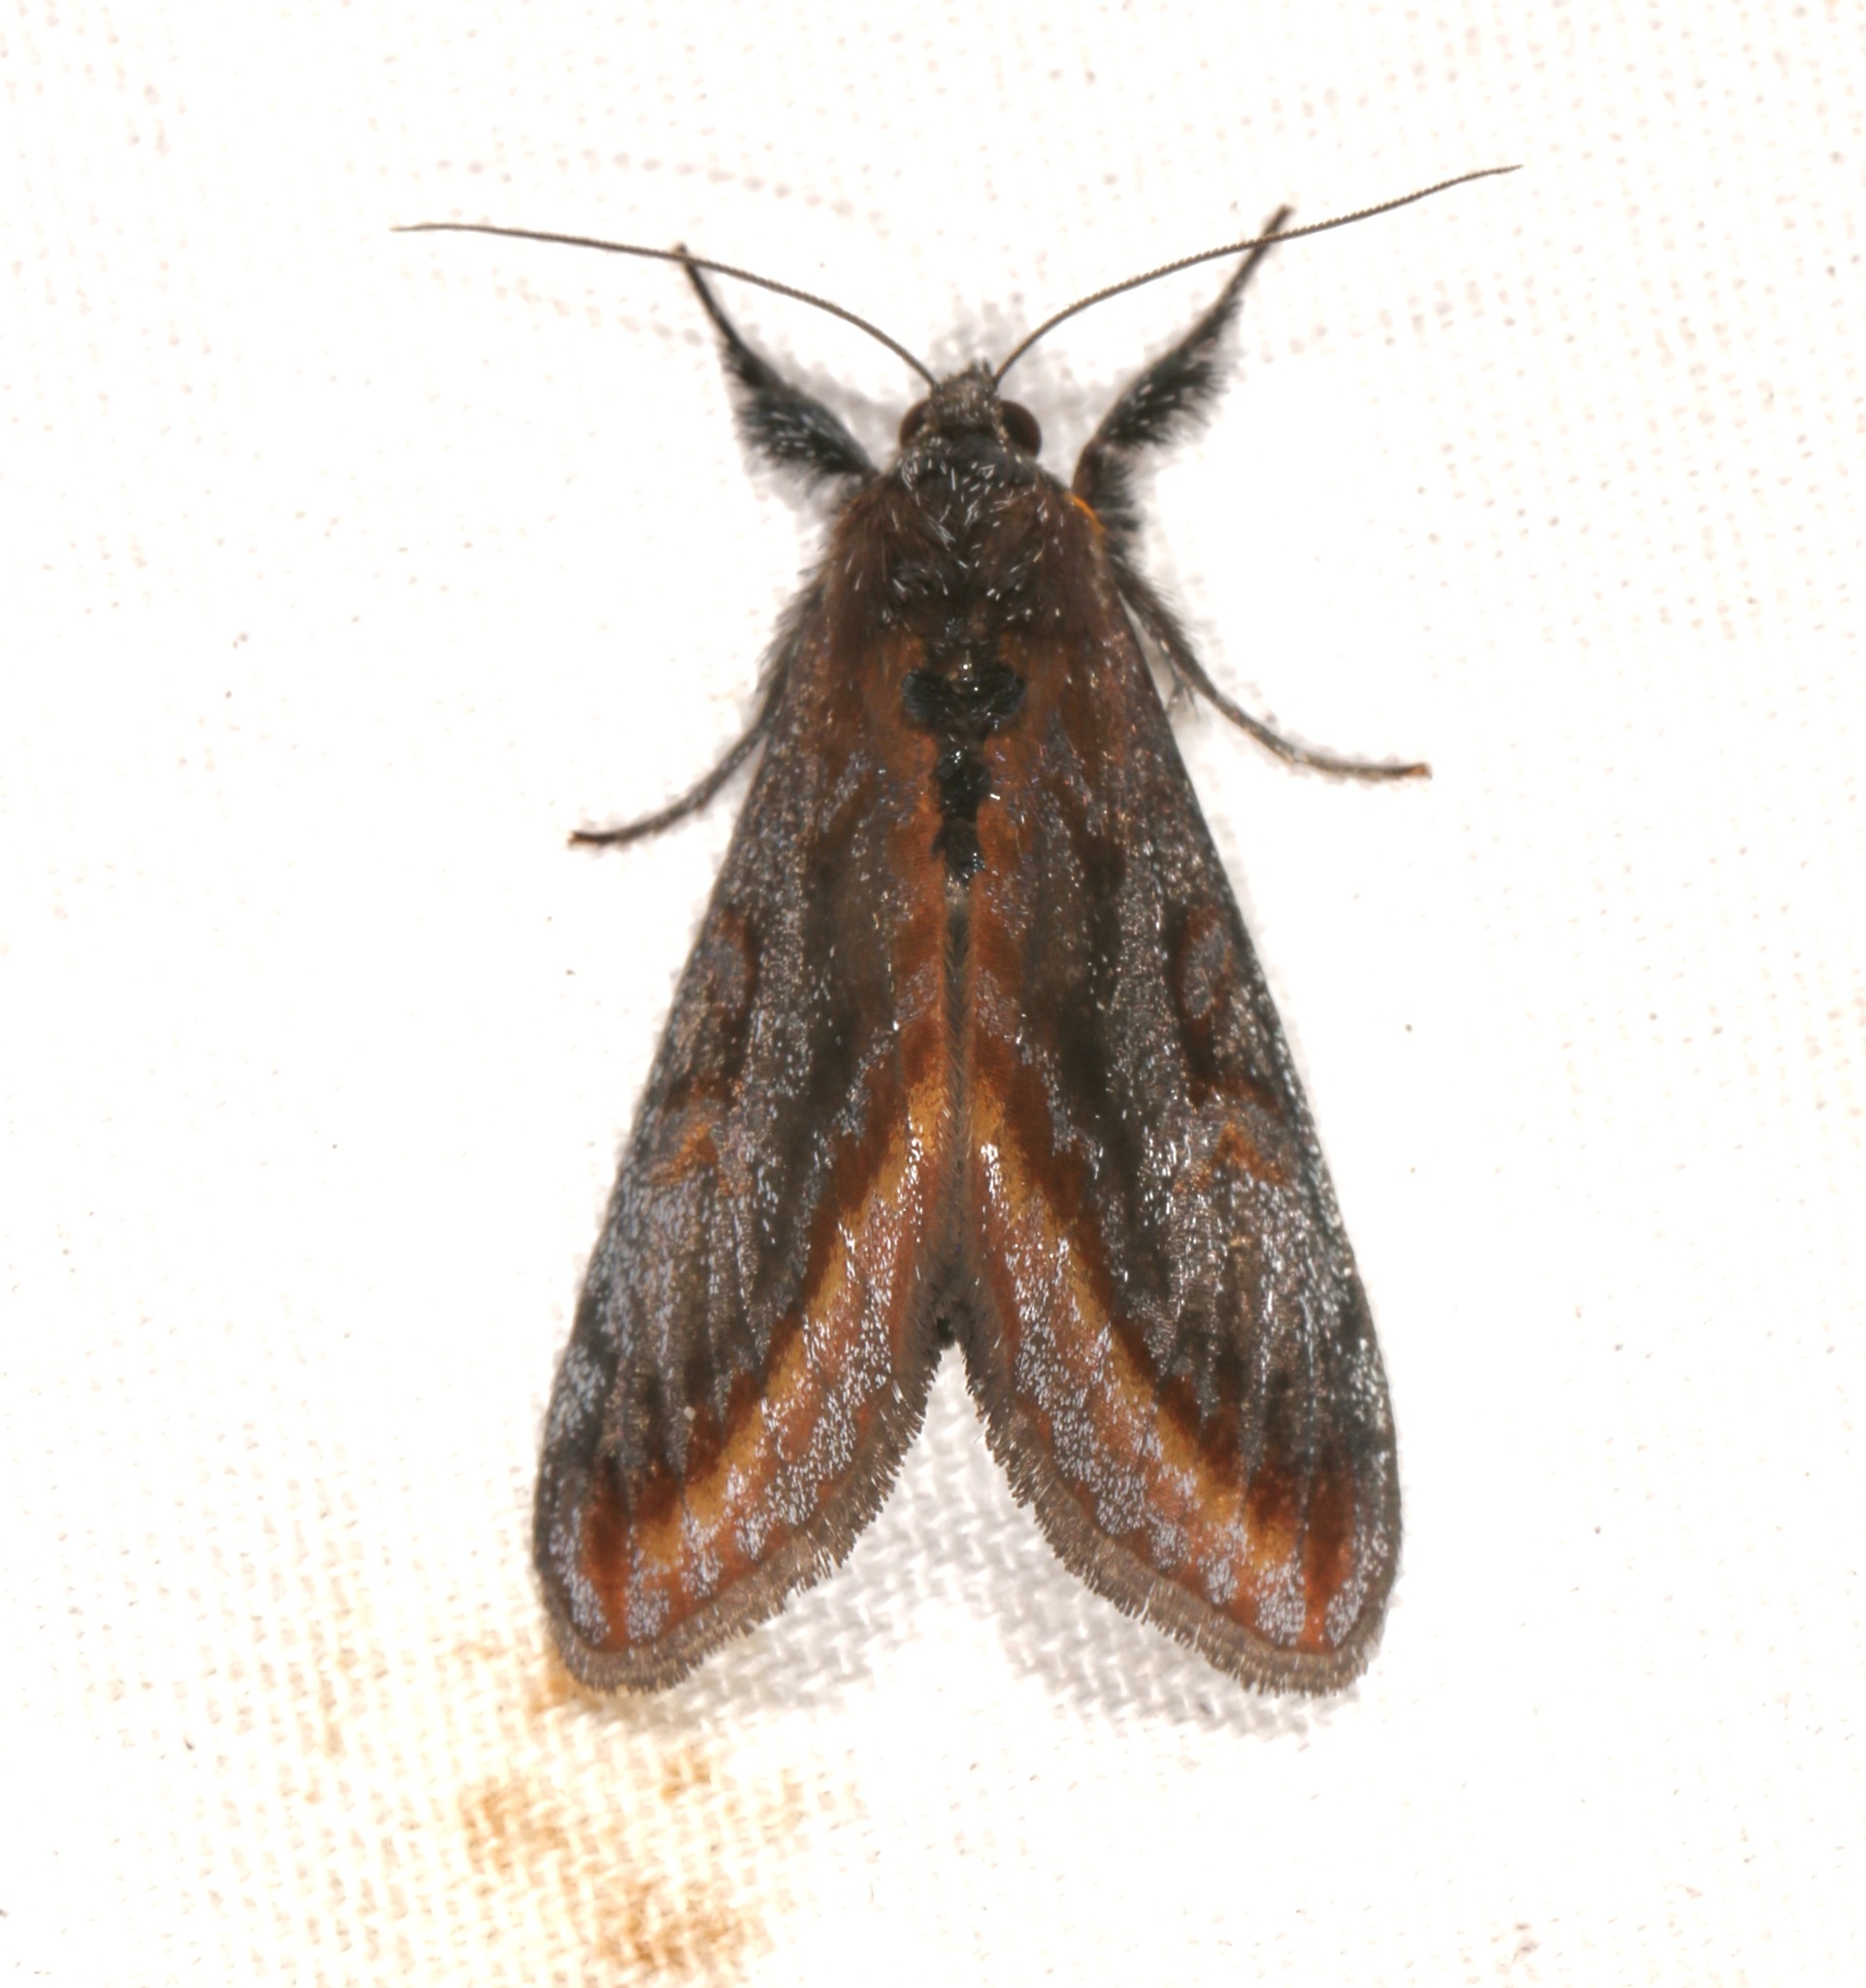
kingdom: Animalia
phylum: Arthropoda
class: Insecta
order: Lepidoptera
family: Noctuidae
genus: Gerra
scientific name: Gerra radicalis
